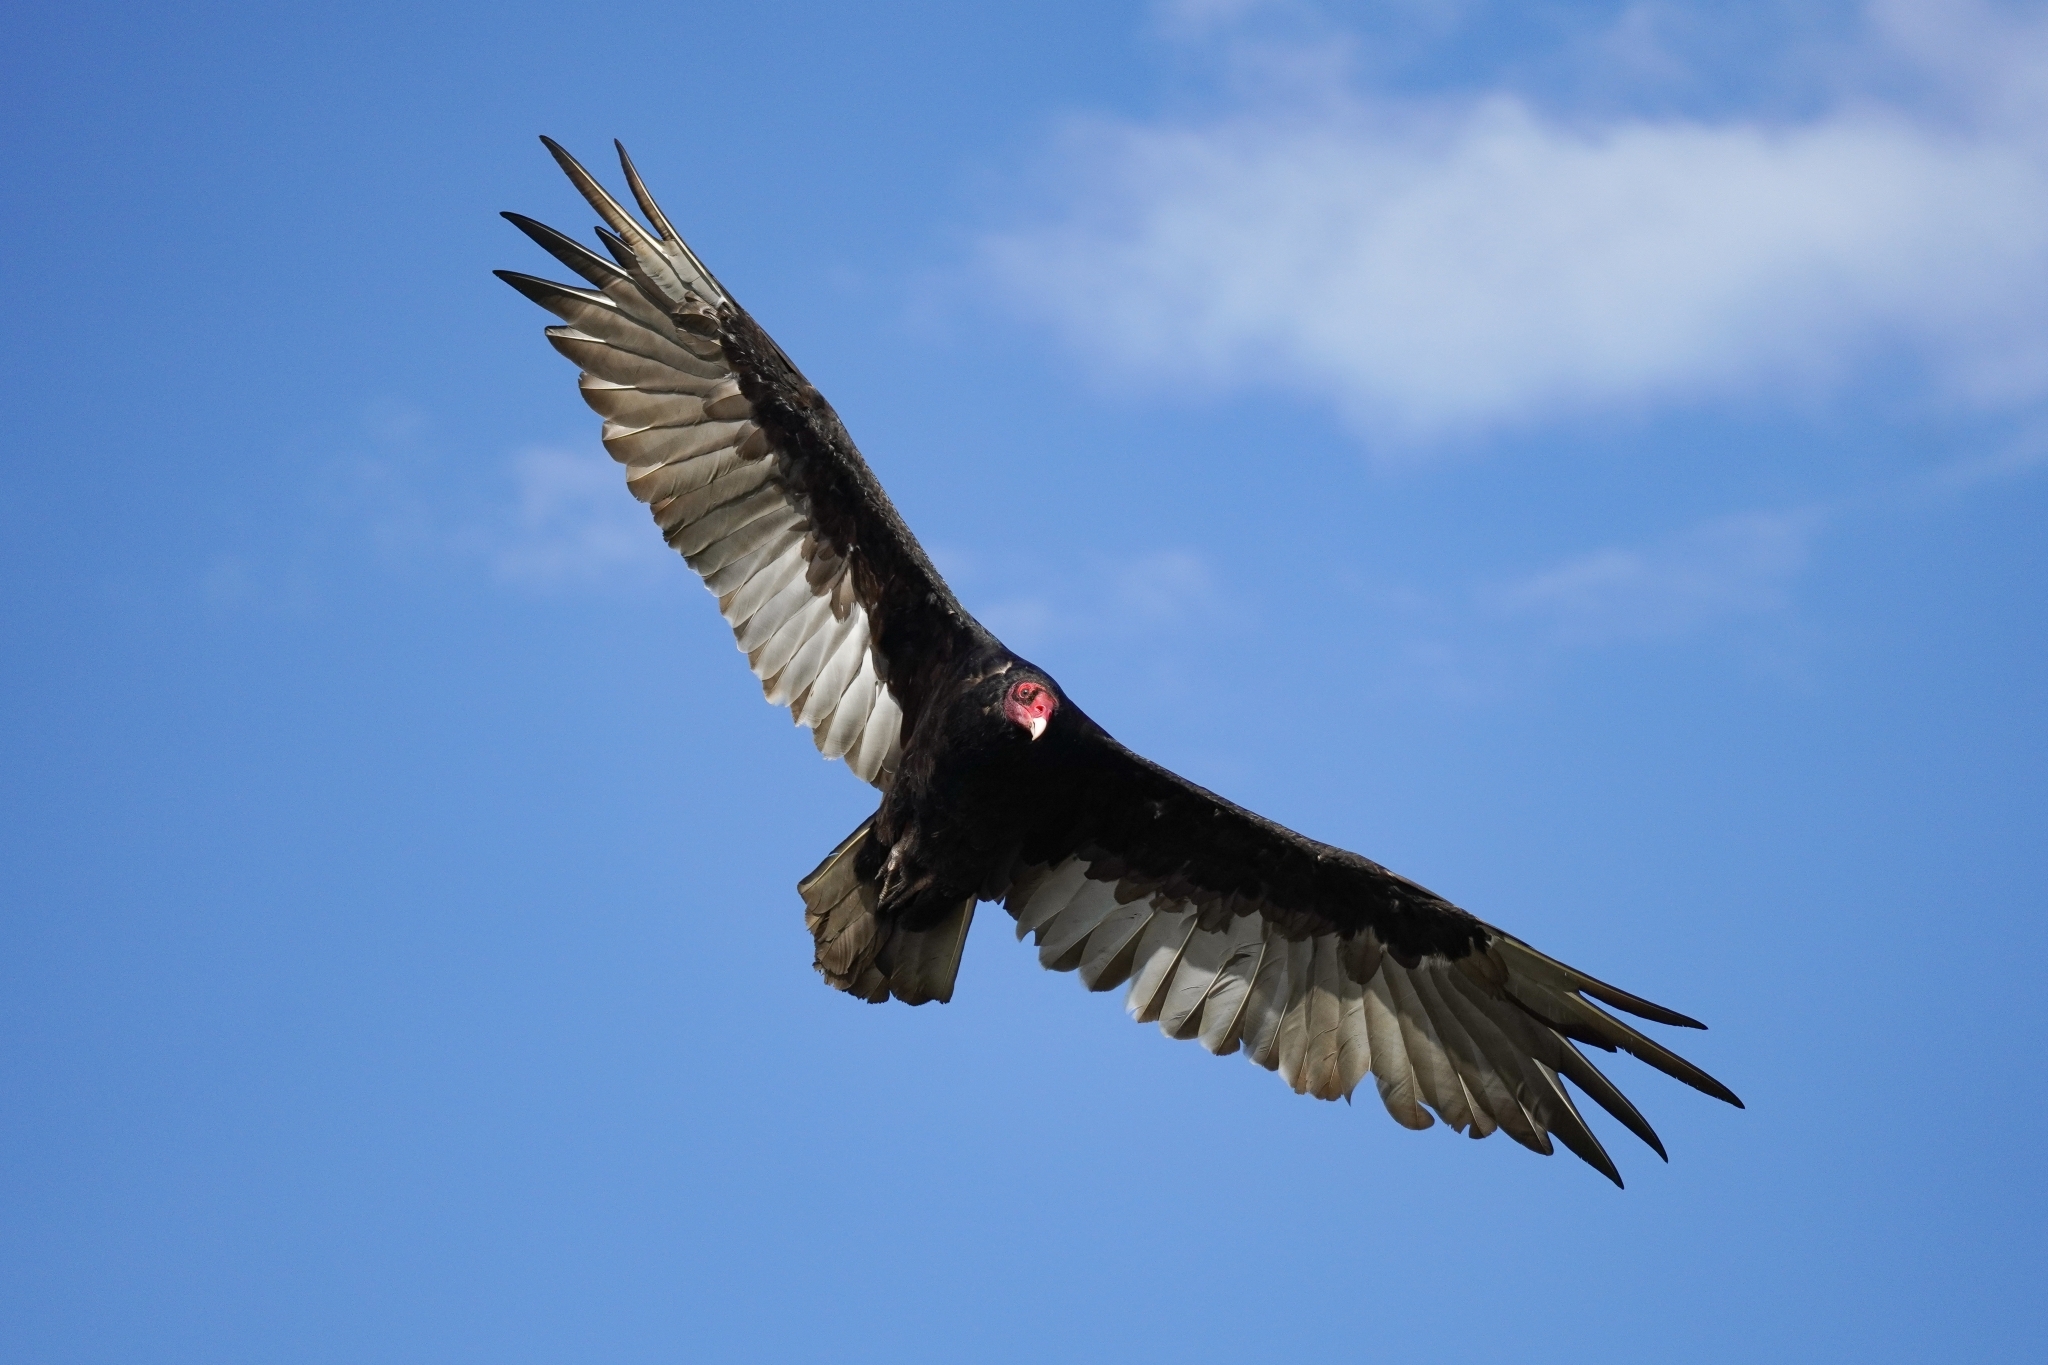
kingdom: Animalia
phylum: Chordata
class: Aves
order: Accipitriformes
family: Cathartidae
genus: Cathartes
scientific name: Cathartes aura
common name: Turkey vulture
